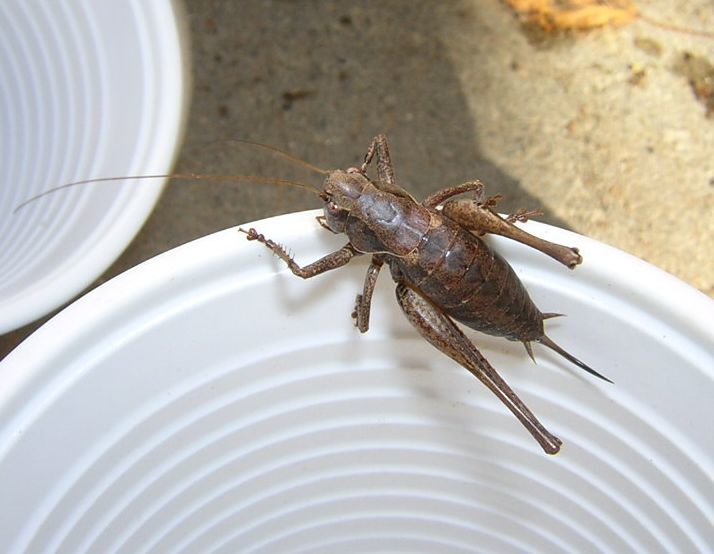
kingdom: Animalia
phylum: Arthropoda
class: Insecta
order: Orthoptera
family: Tettigoniidae
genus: Pholidoptera
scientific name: Pholidoptera griseoaptera
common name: Dark bush-cricket
